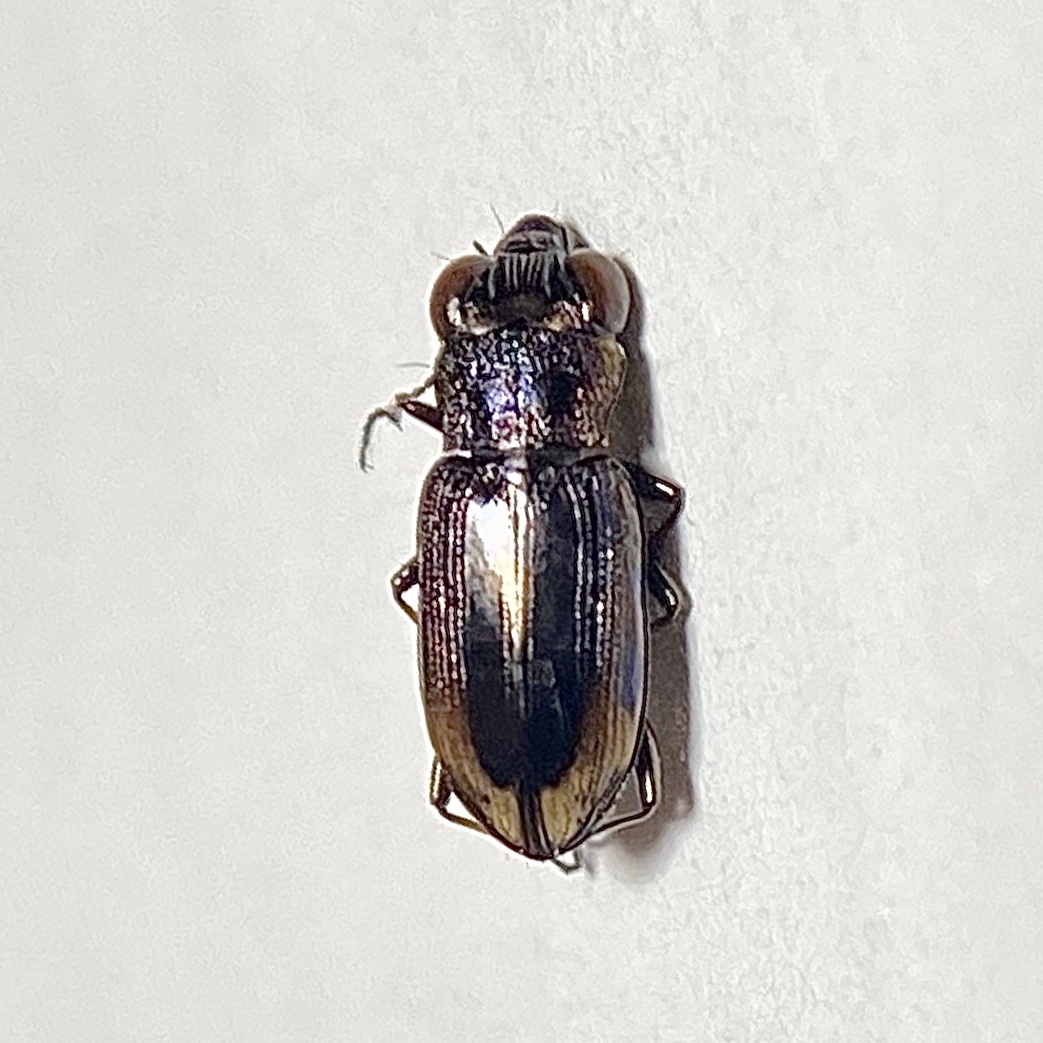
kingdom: Animalia
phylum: Arthropoda
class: Insecta
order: Coleoptera
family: Carabidae
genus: Notiophilus
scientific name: Notiophilus biguttatus
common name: Spotted gazelle beetle
